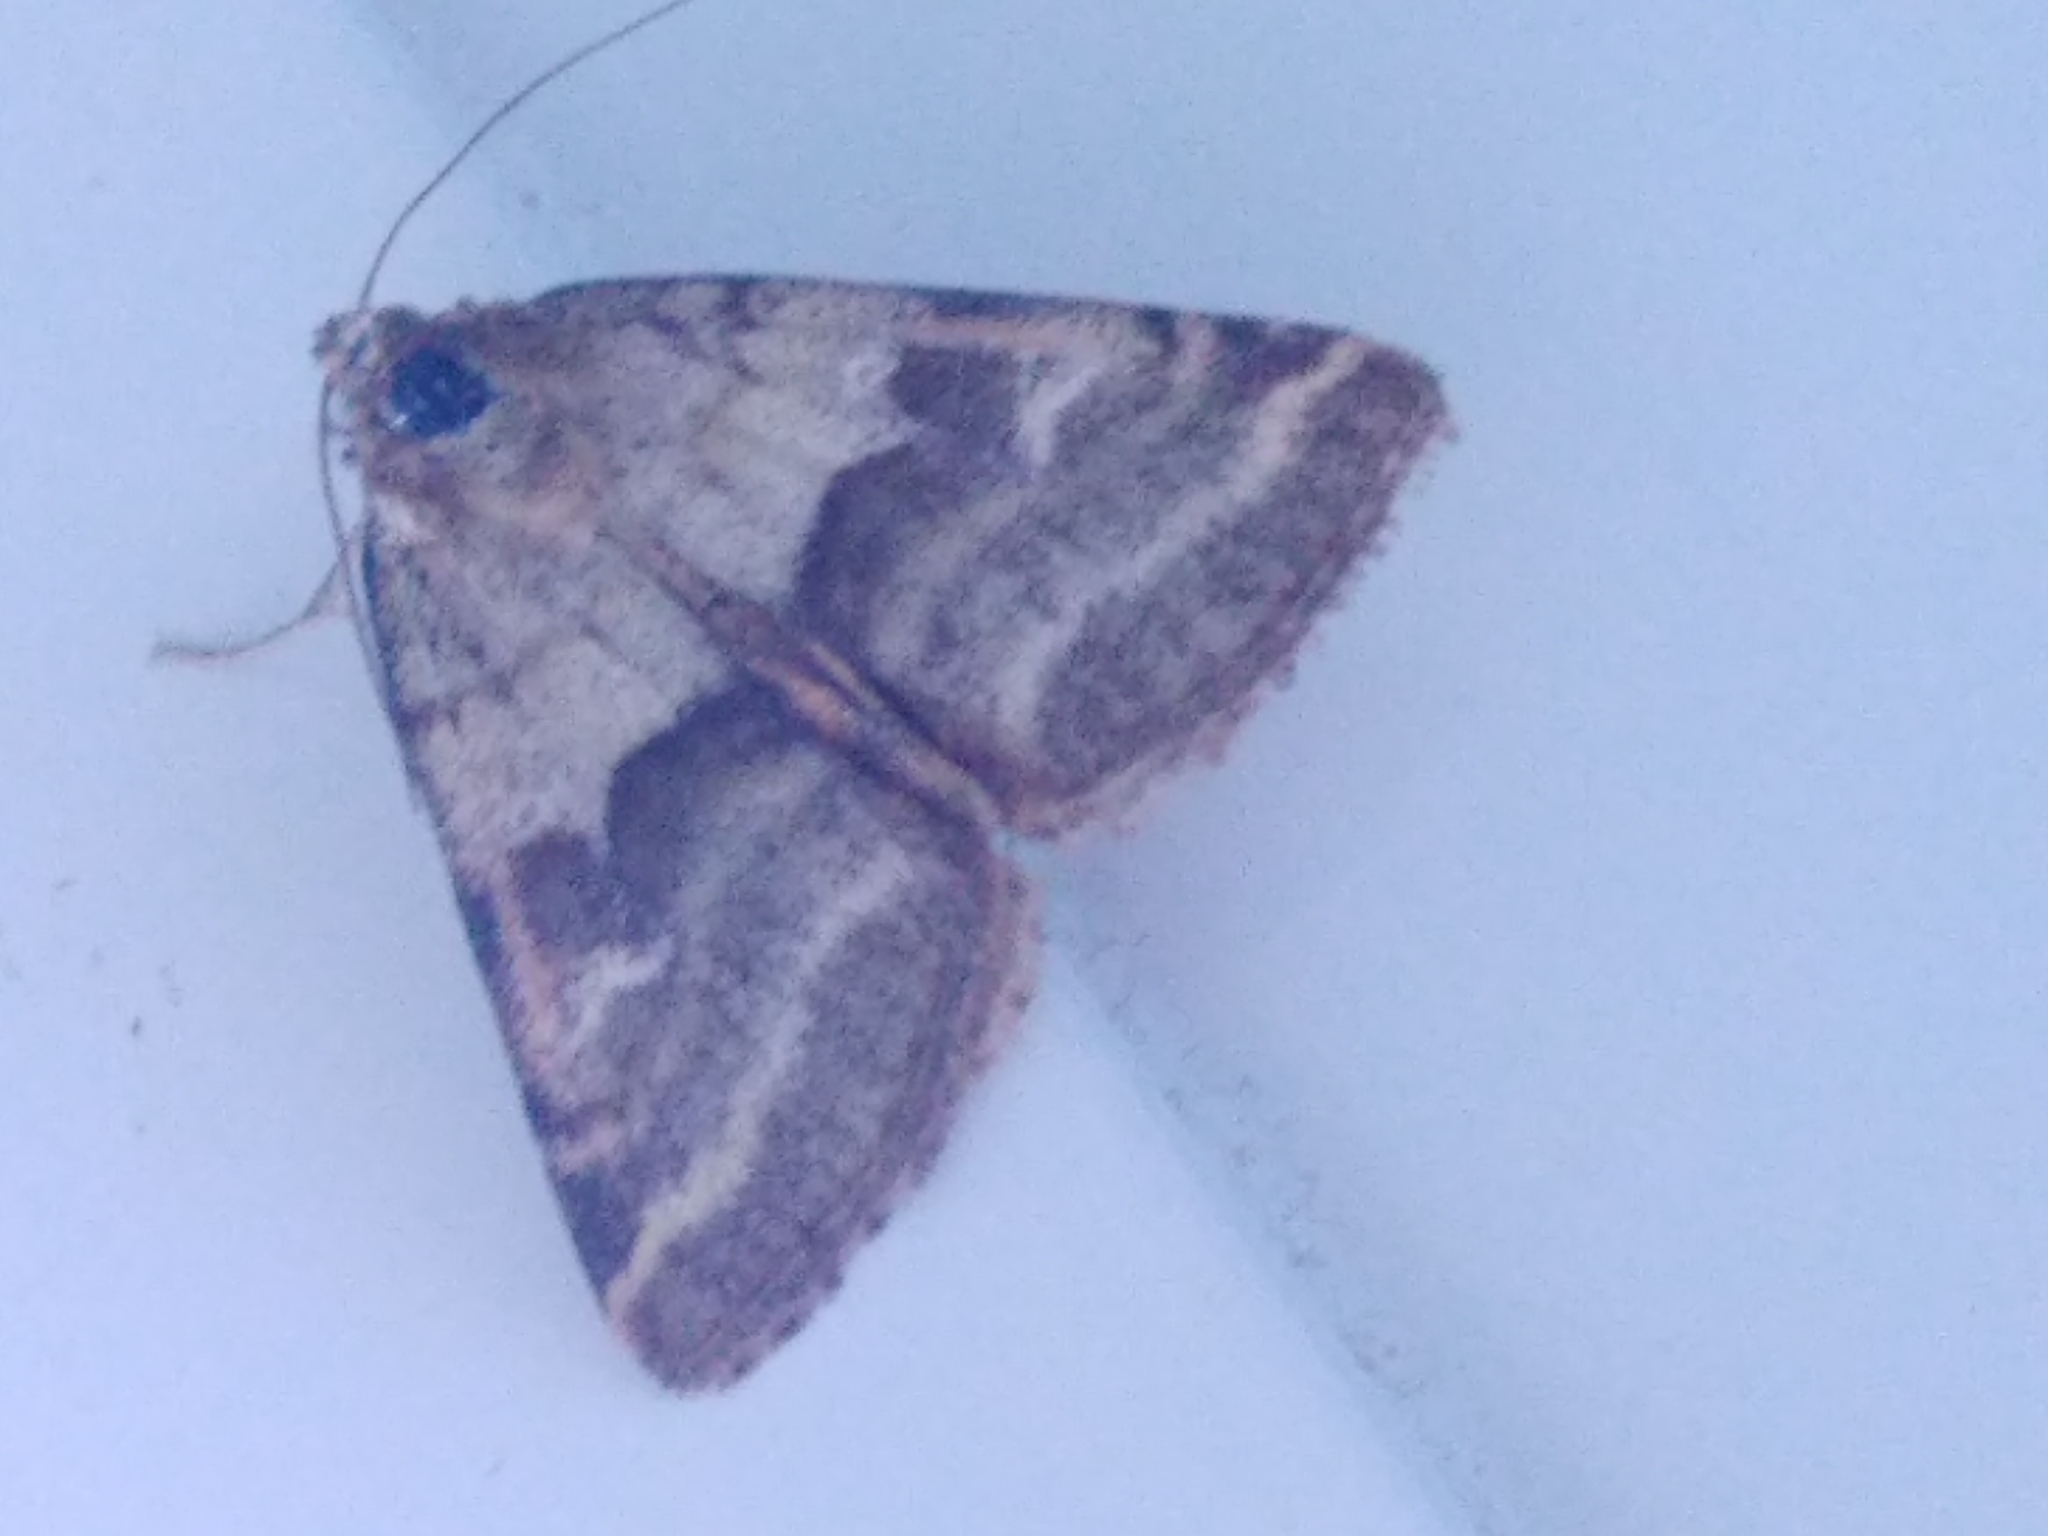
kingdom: Animalia
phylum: Arthropoda
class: Insecta
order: Lepidoptera
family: Noctuidae
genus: Synthymia
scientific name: Synthymia fixa
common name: Goldwing
